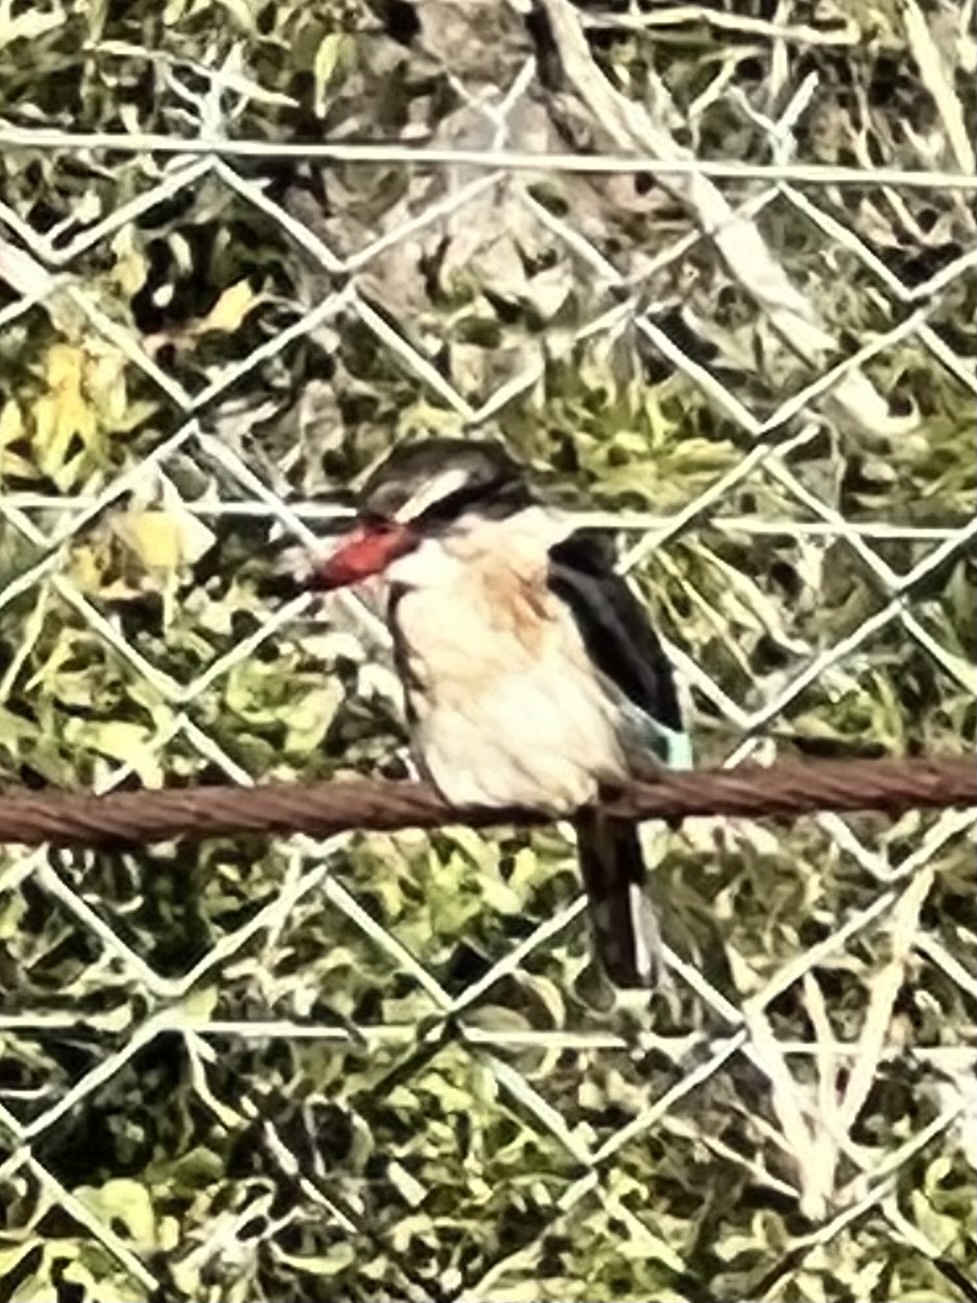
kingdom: Animalia
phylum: Chordata
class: Aves
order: Coraciiformes
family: Alcedinidae
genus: Halcyon
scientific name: Halcyon albiventris
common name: Brown-hooded kingfisher
